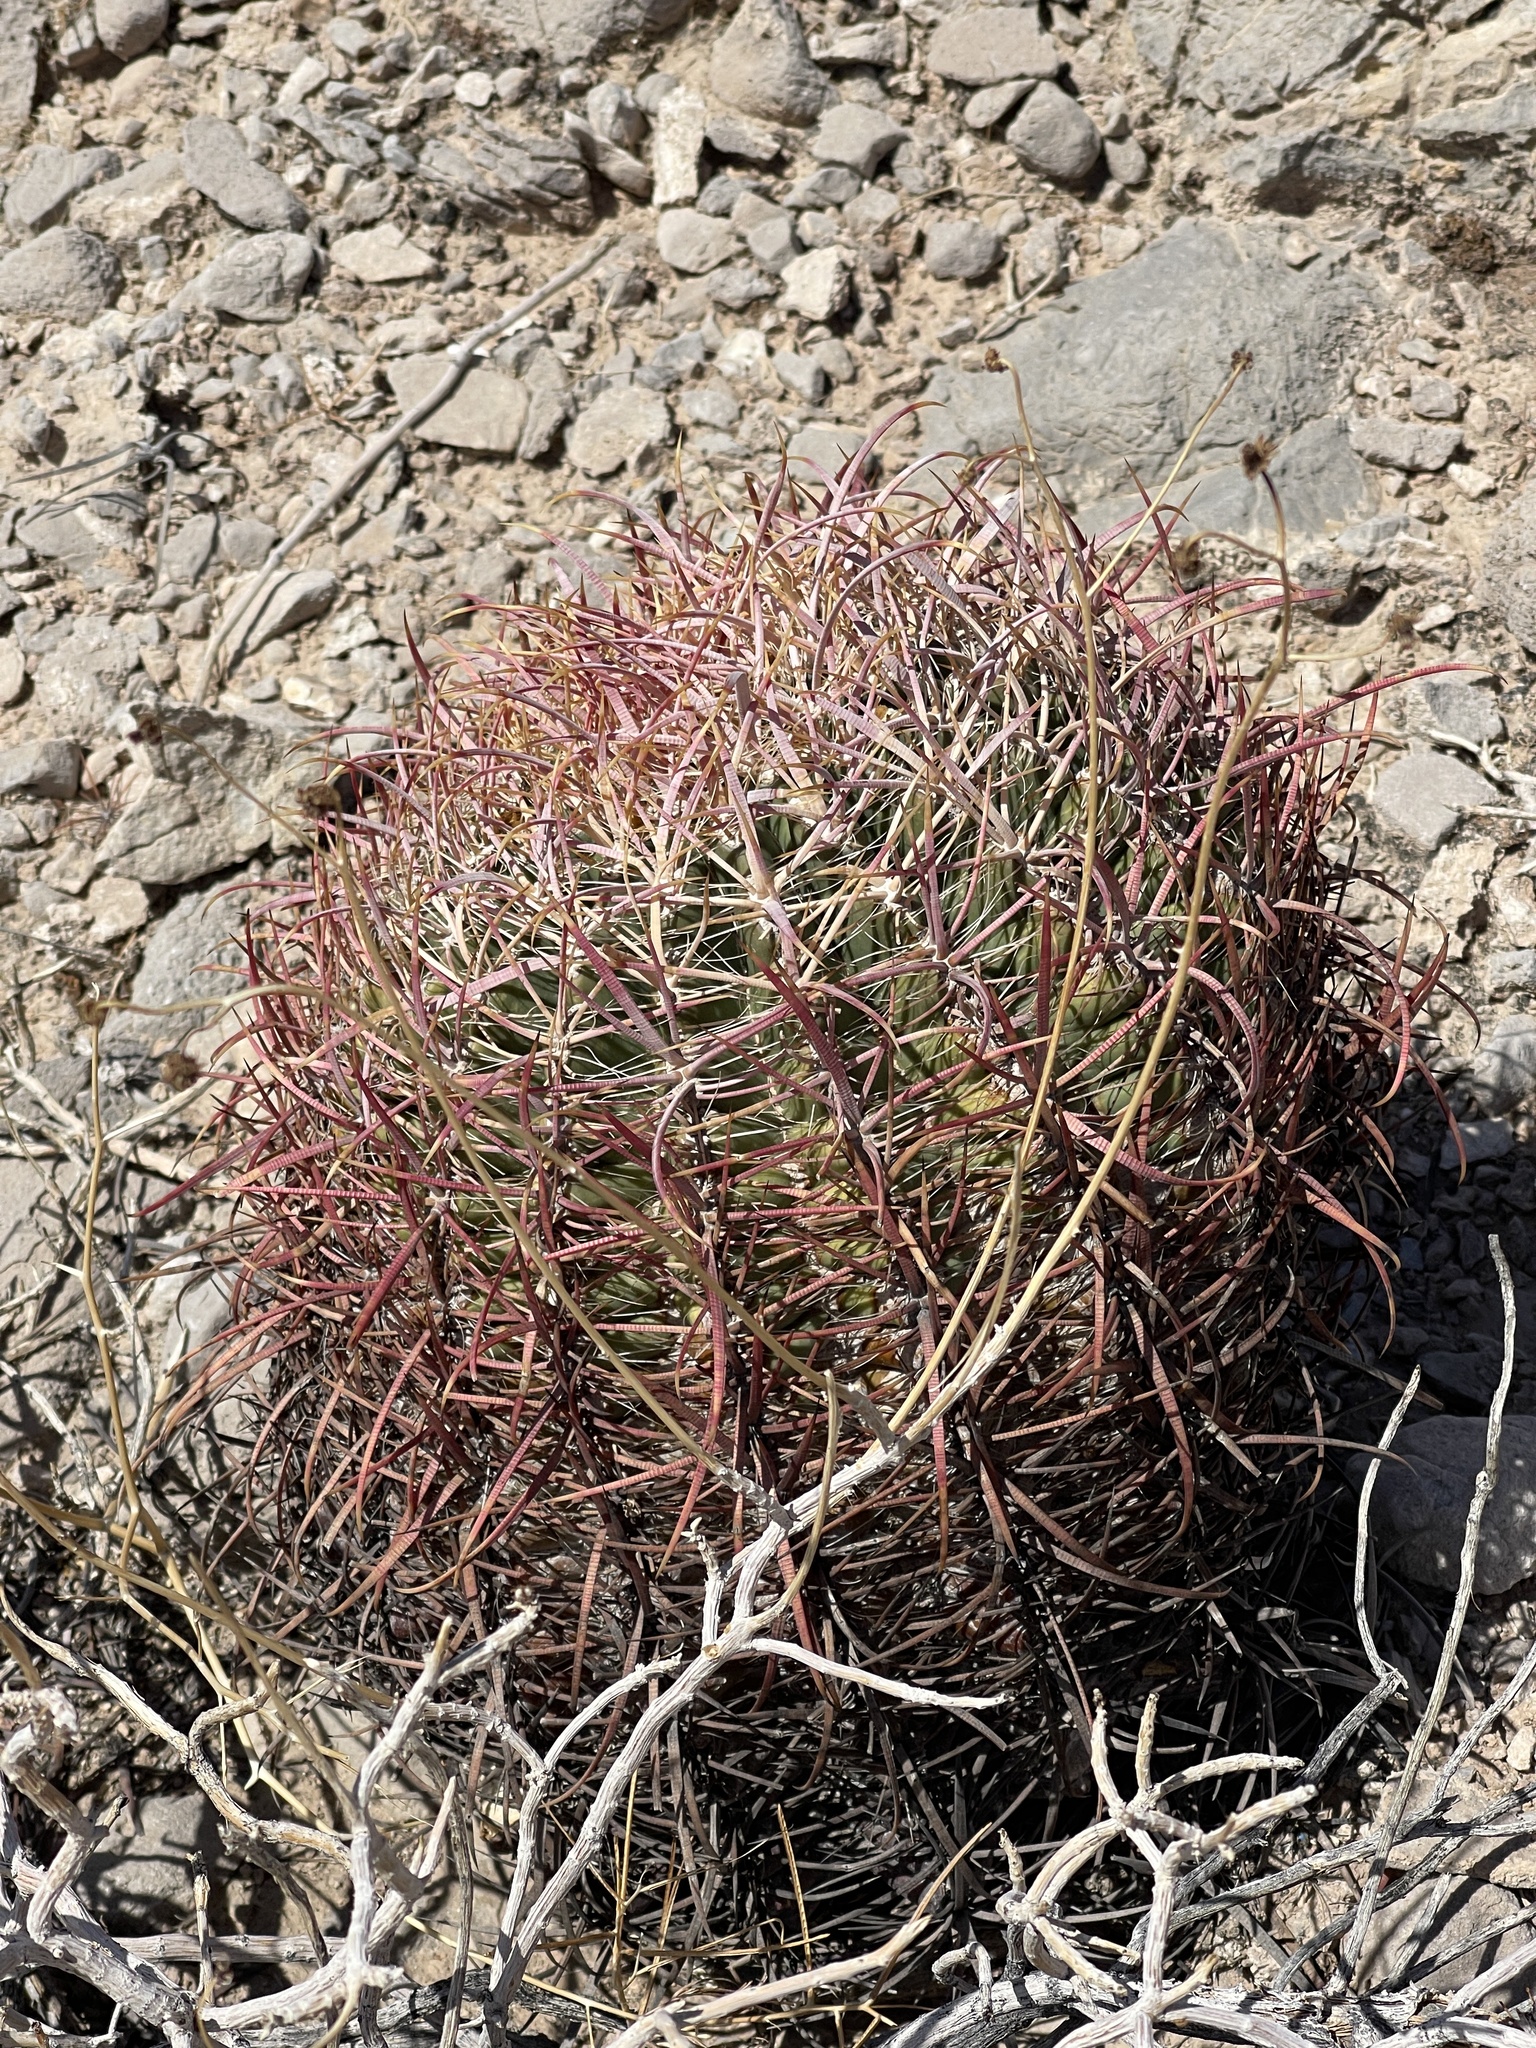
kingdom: Plantae
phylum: Tracheophyta
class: Magnoliopsida
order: Caryophyllales
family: Cactaceae
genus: Ferocactus
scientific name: Ferocactus cylindraceus
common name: California barrel cactus
